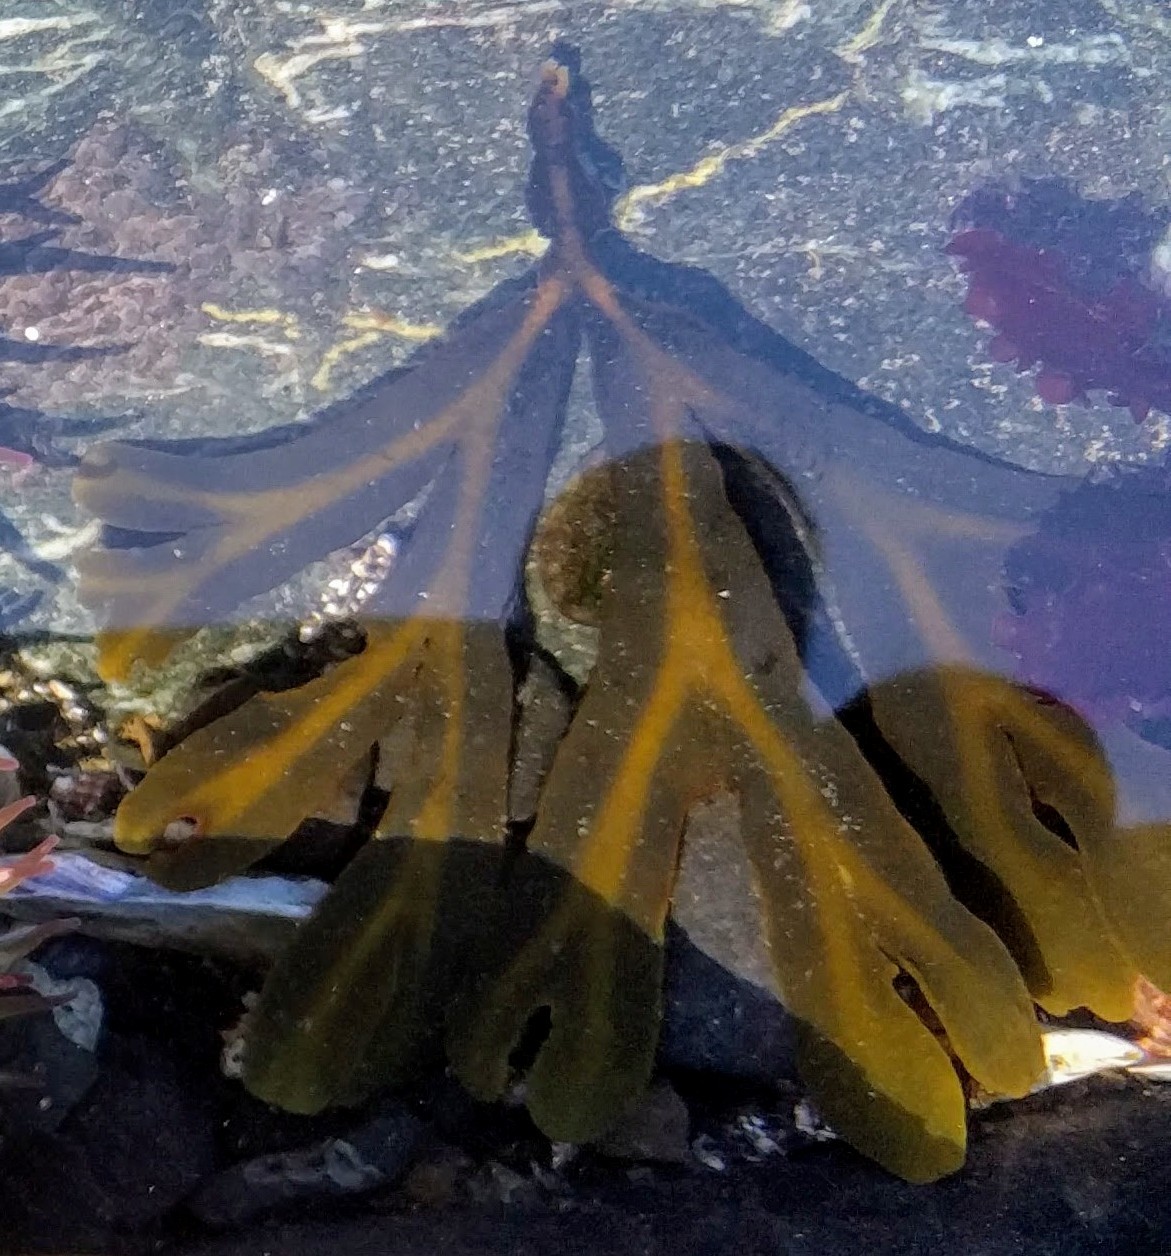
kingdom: Chromista
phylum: Ochrophyta
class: Phaeophyceae
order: Fucales
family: Fucaceae
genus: Fucus
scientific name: Fucus distichus
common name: Rockweed
